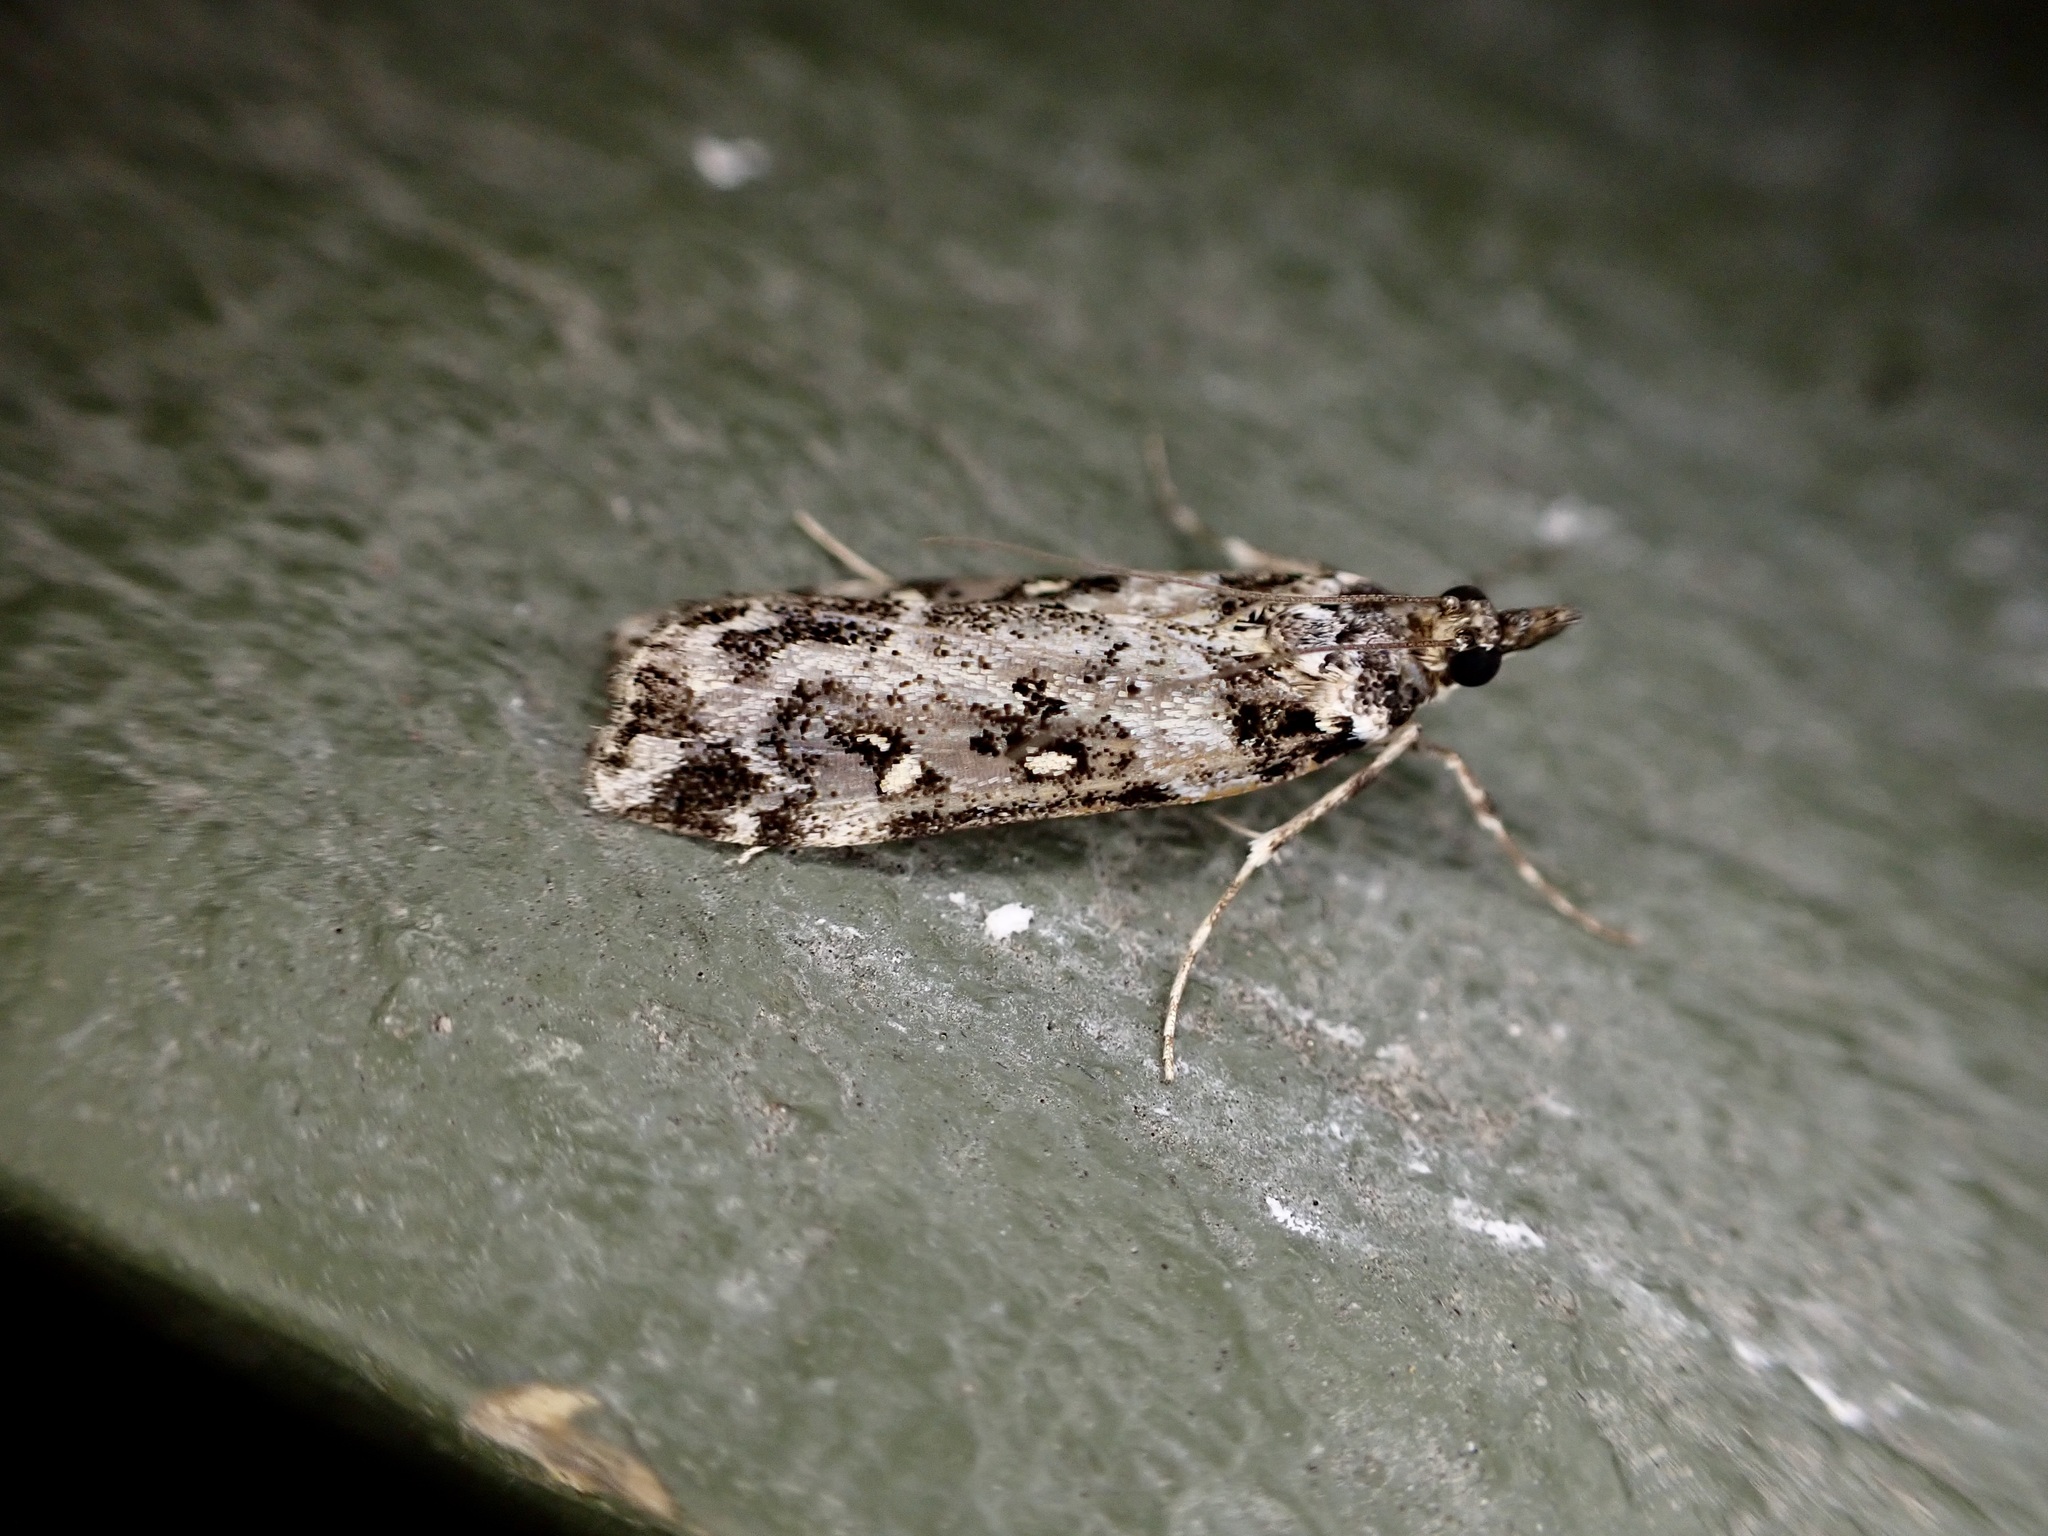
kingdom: Animalia
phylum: Arthropoda
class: Insecta
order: Lepidoptera
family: Crambidae
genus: Eudonia
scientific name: Eudonia diphtheralis
